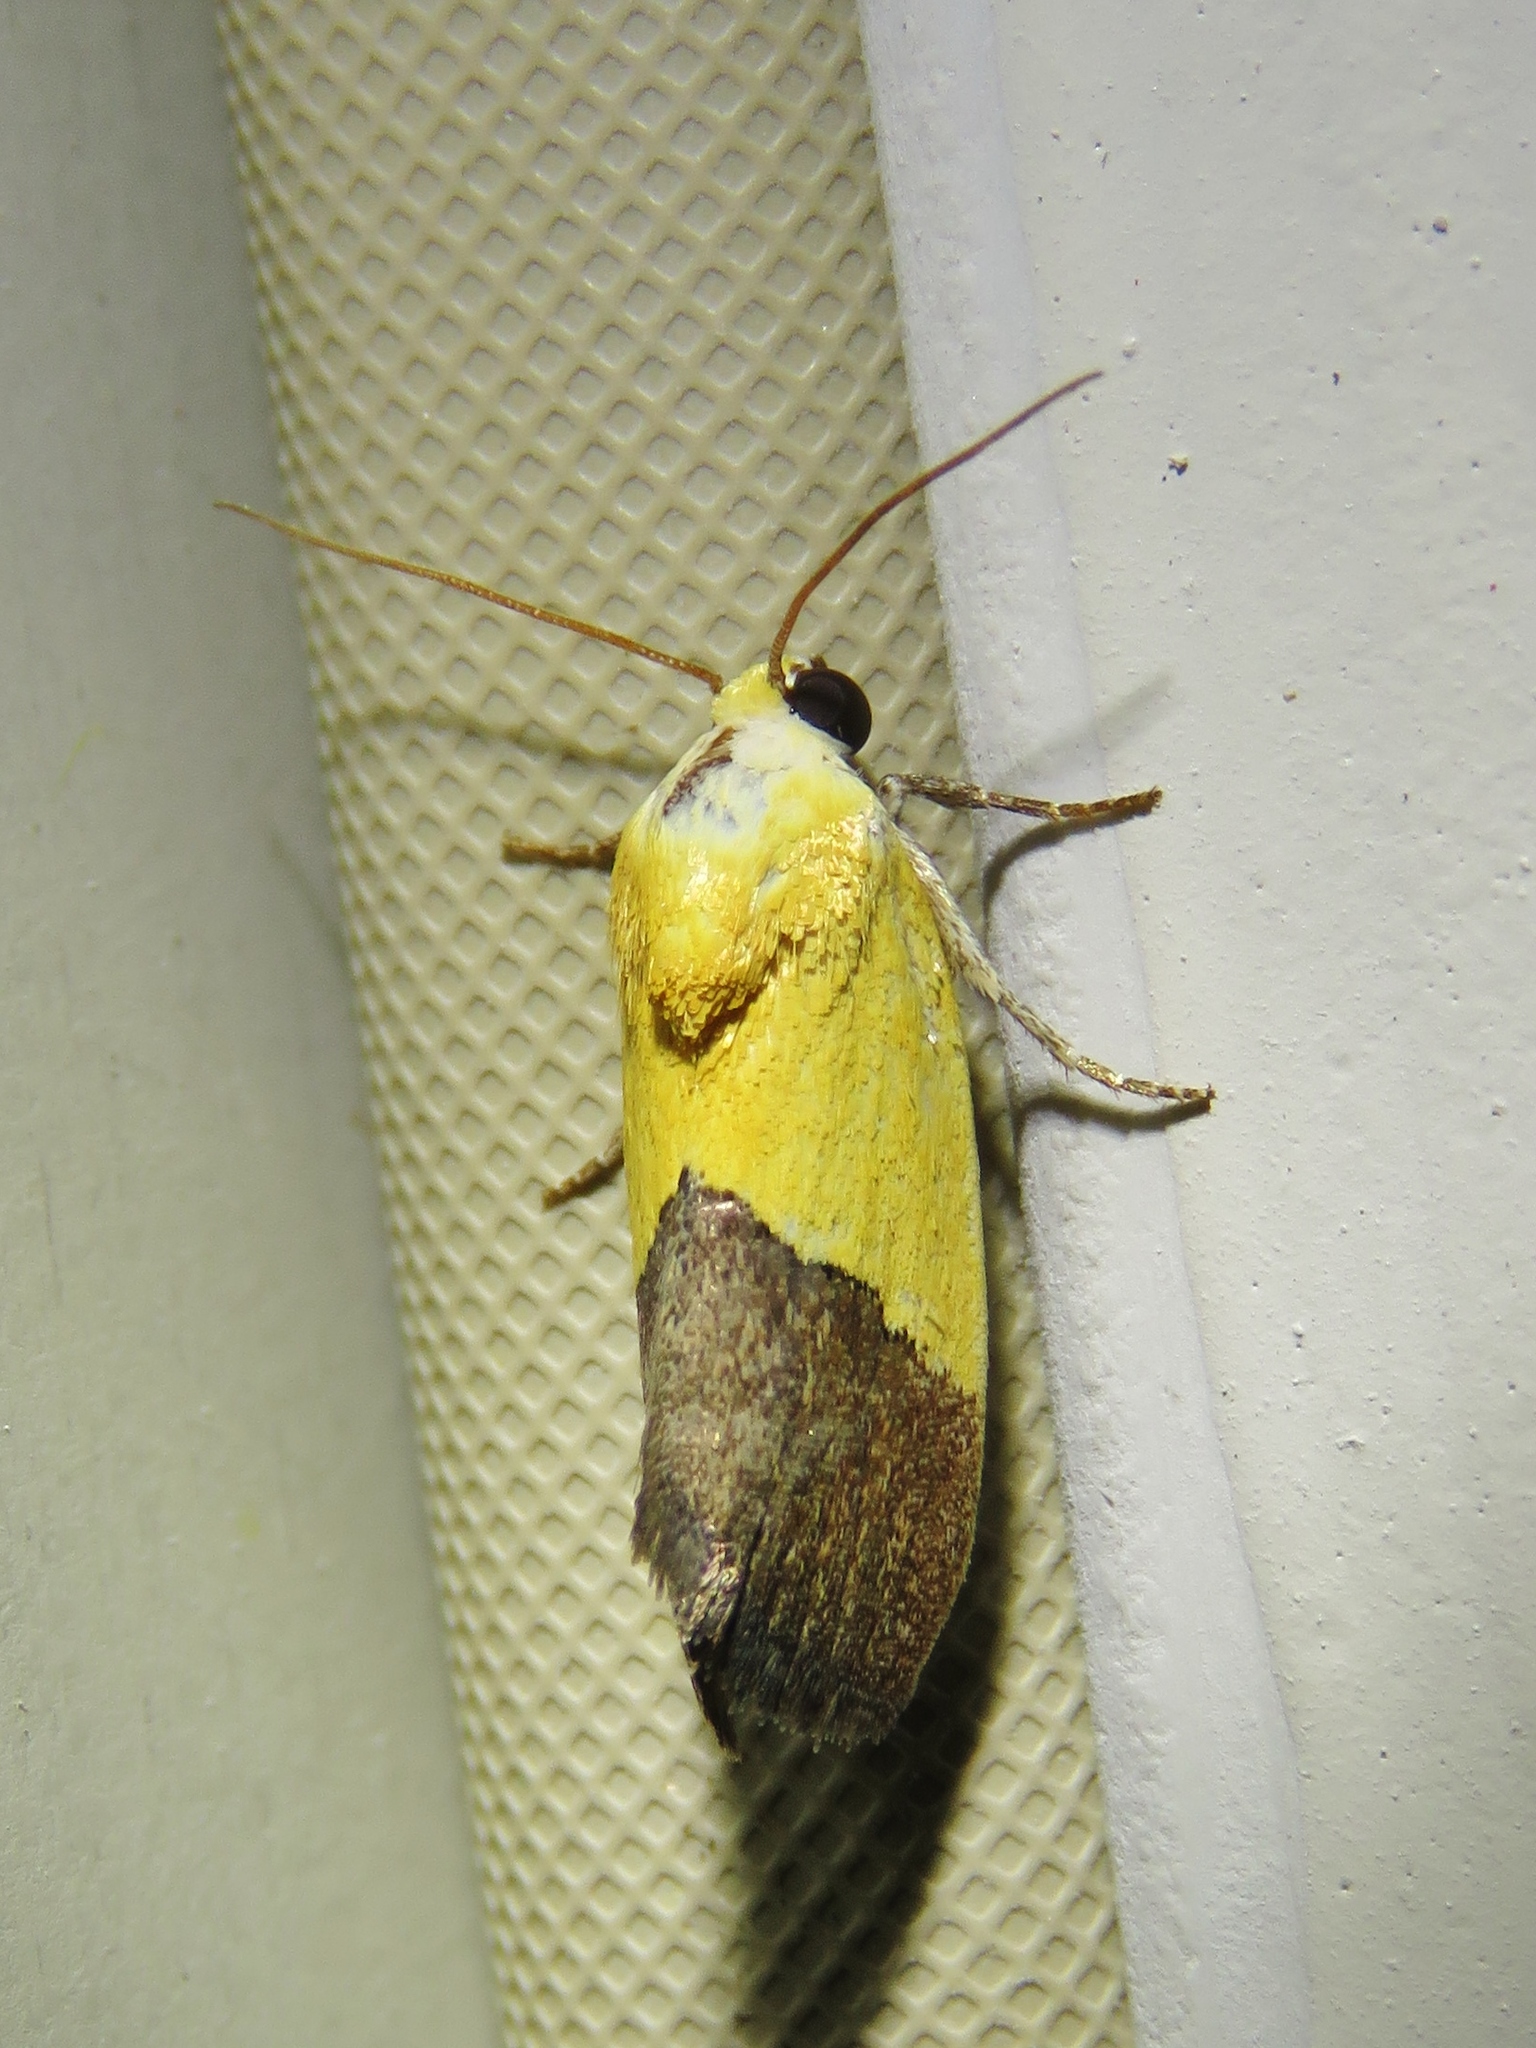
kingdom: Animalia
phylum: Arthropoda
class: Insecta
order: Lepidoptera
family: Noctuidae
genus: Acontia
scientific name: Acontia semiflava
